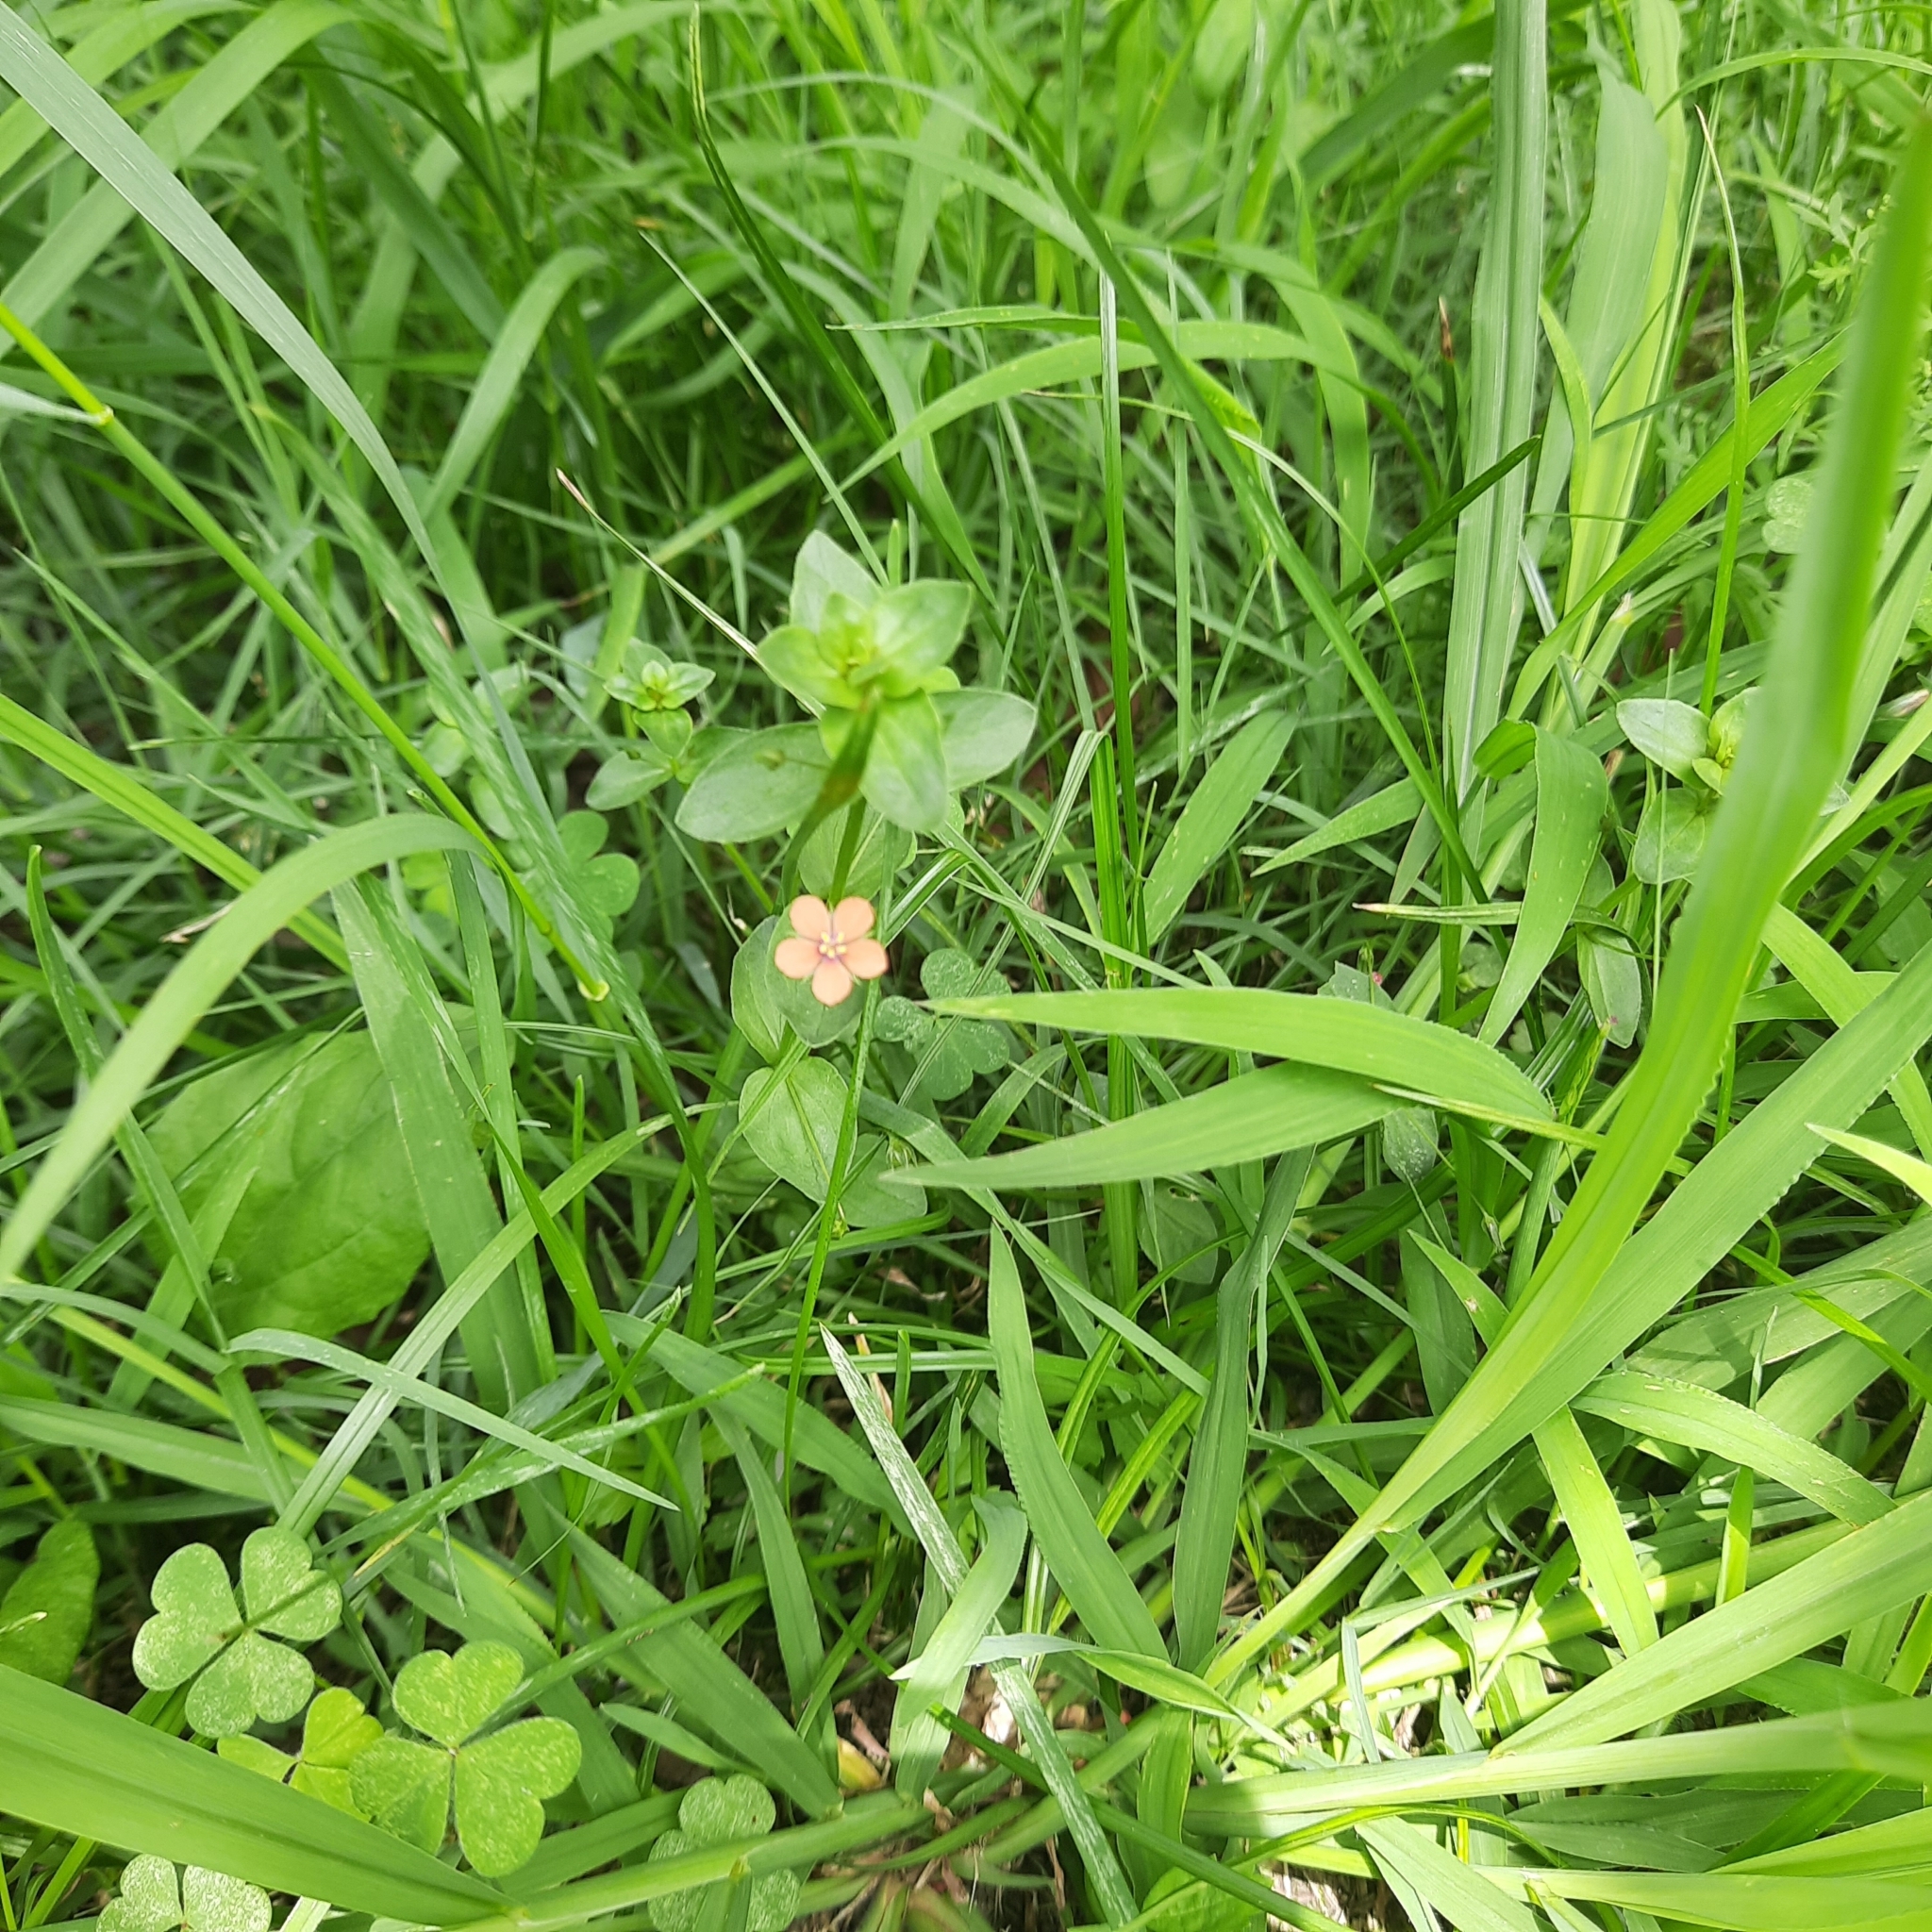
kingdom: Plantae
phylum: Tracheophyta
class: Magnoliopsida
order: Ericales
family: Primulaceae
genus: Lysimachia
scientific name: Lysimachia arvensis
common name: Scarlet pimpernel
